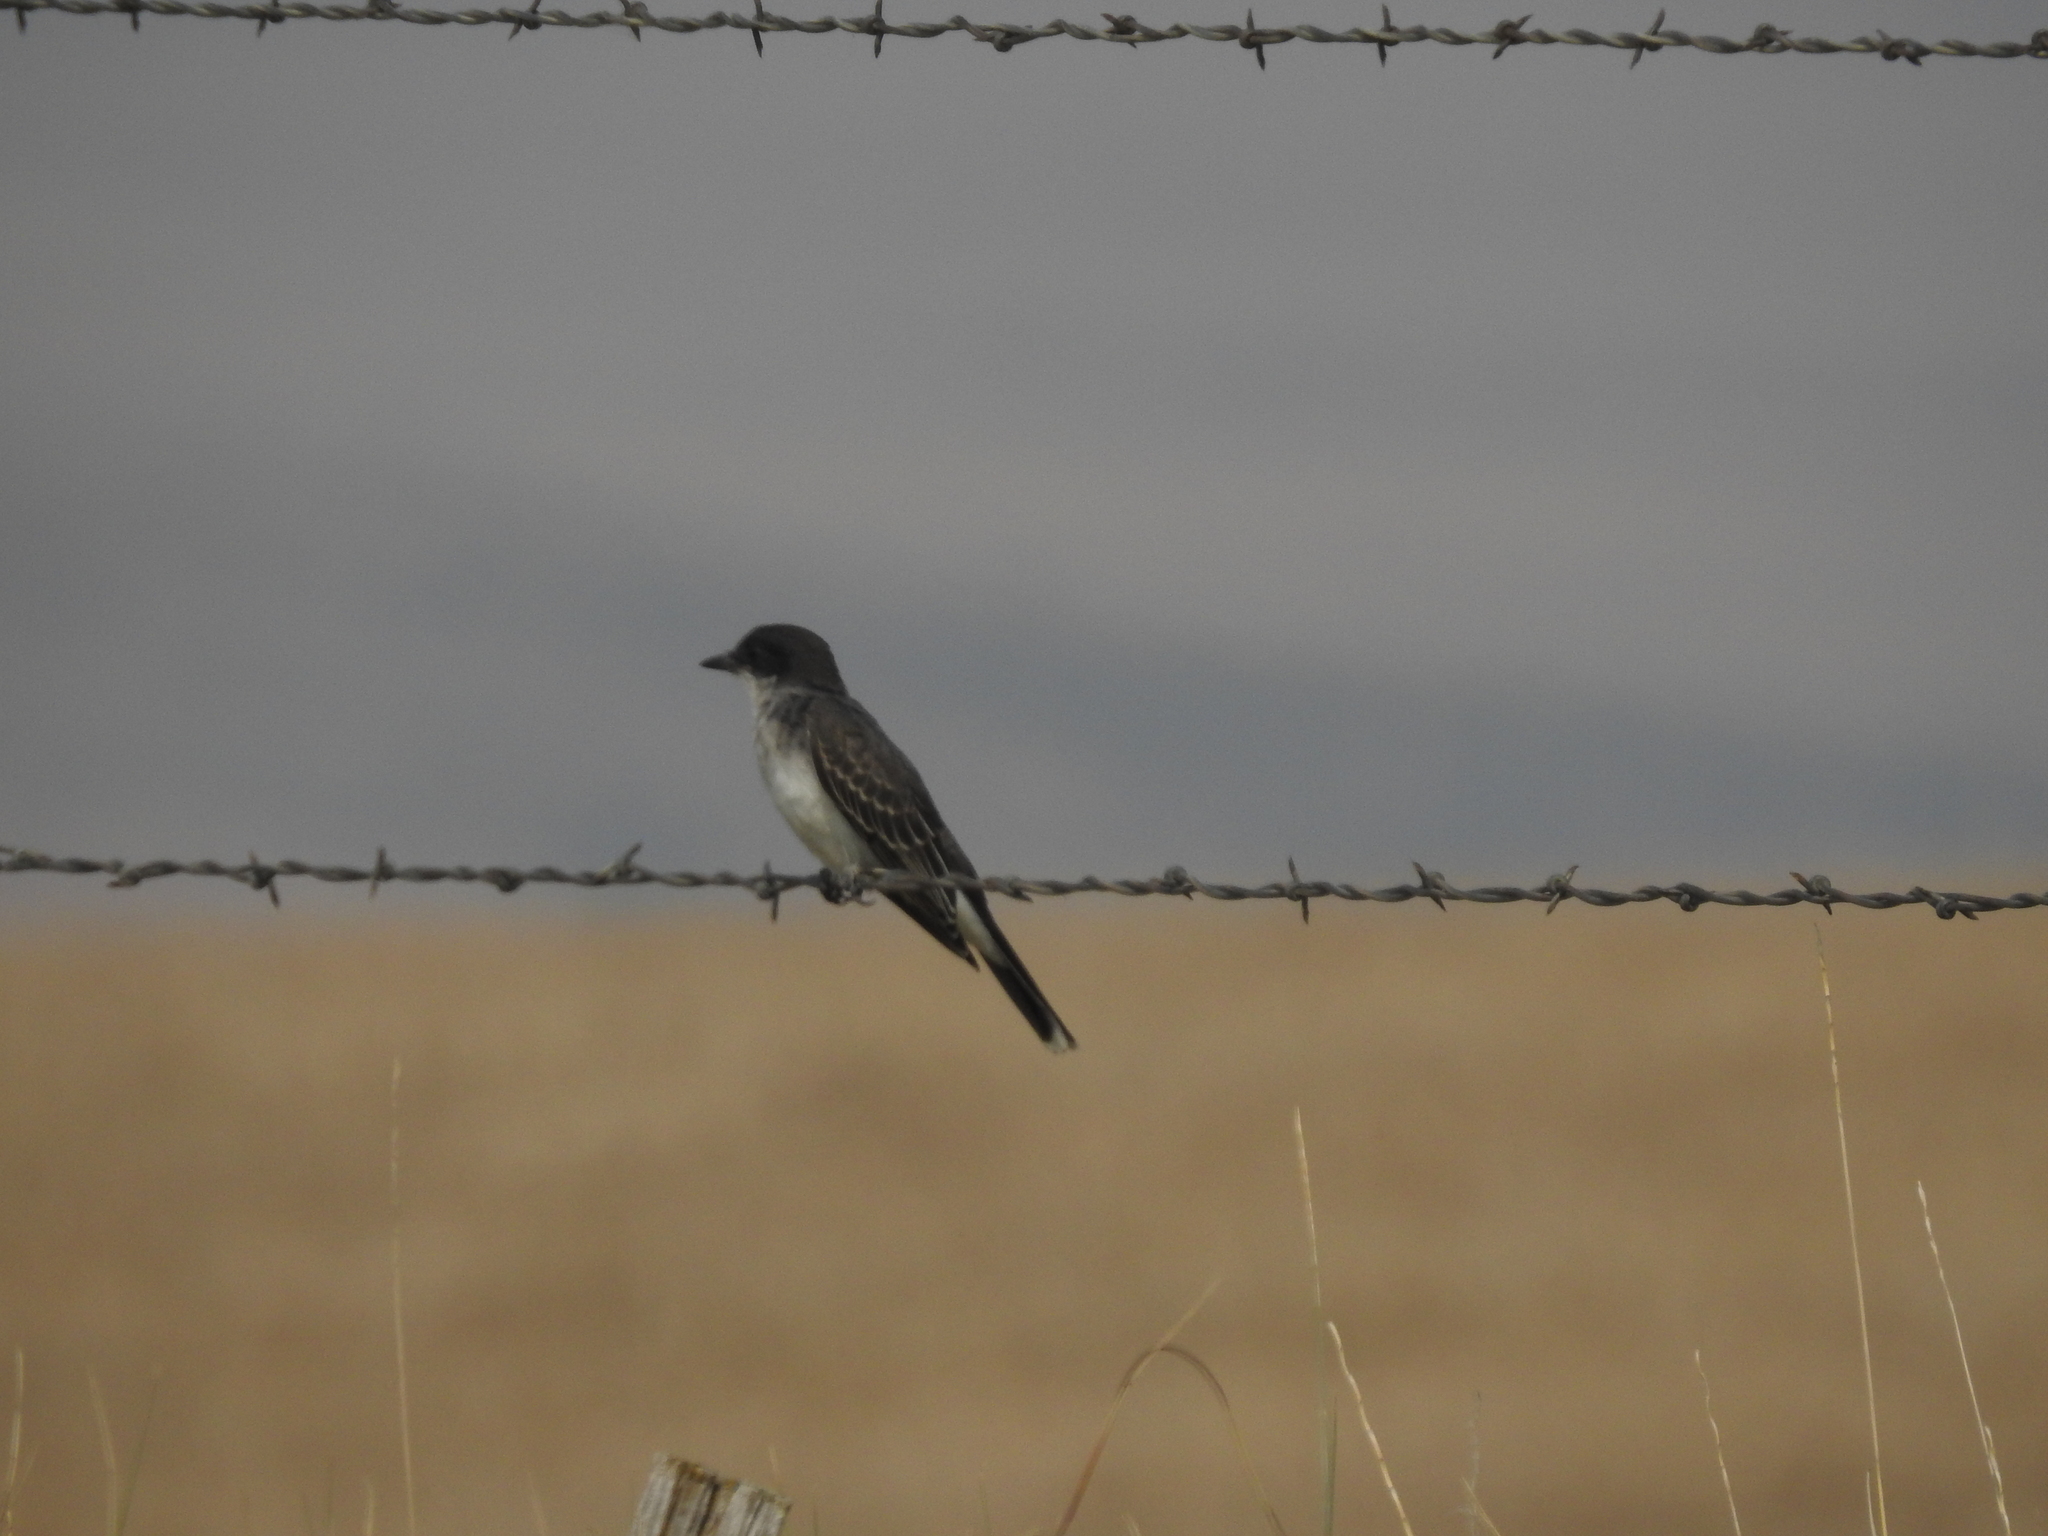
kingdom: Animalia
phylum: Chordata
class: Aves
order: Passeriformes
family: Tyrannidae
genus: Tyrannus
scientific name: Tyrannus tyrannus
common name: Eastern kingbird
